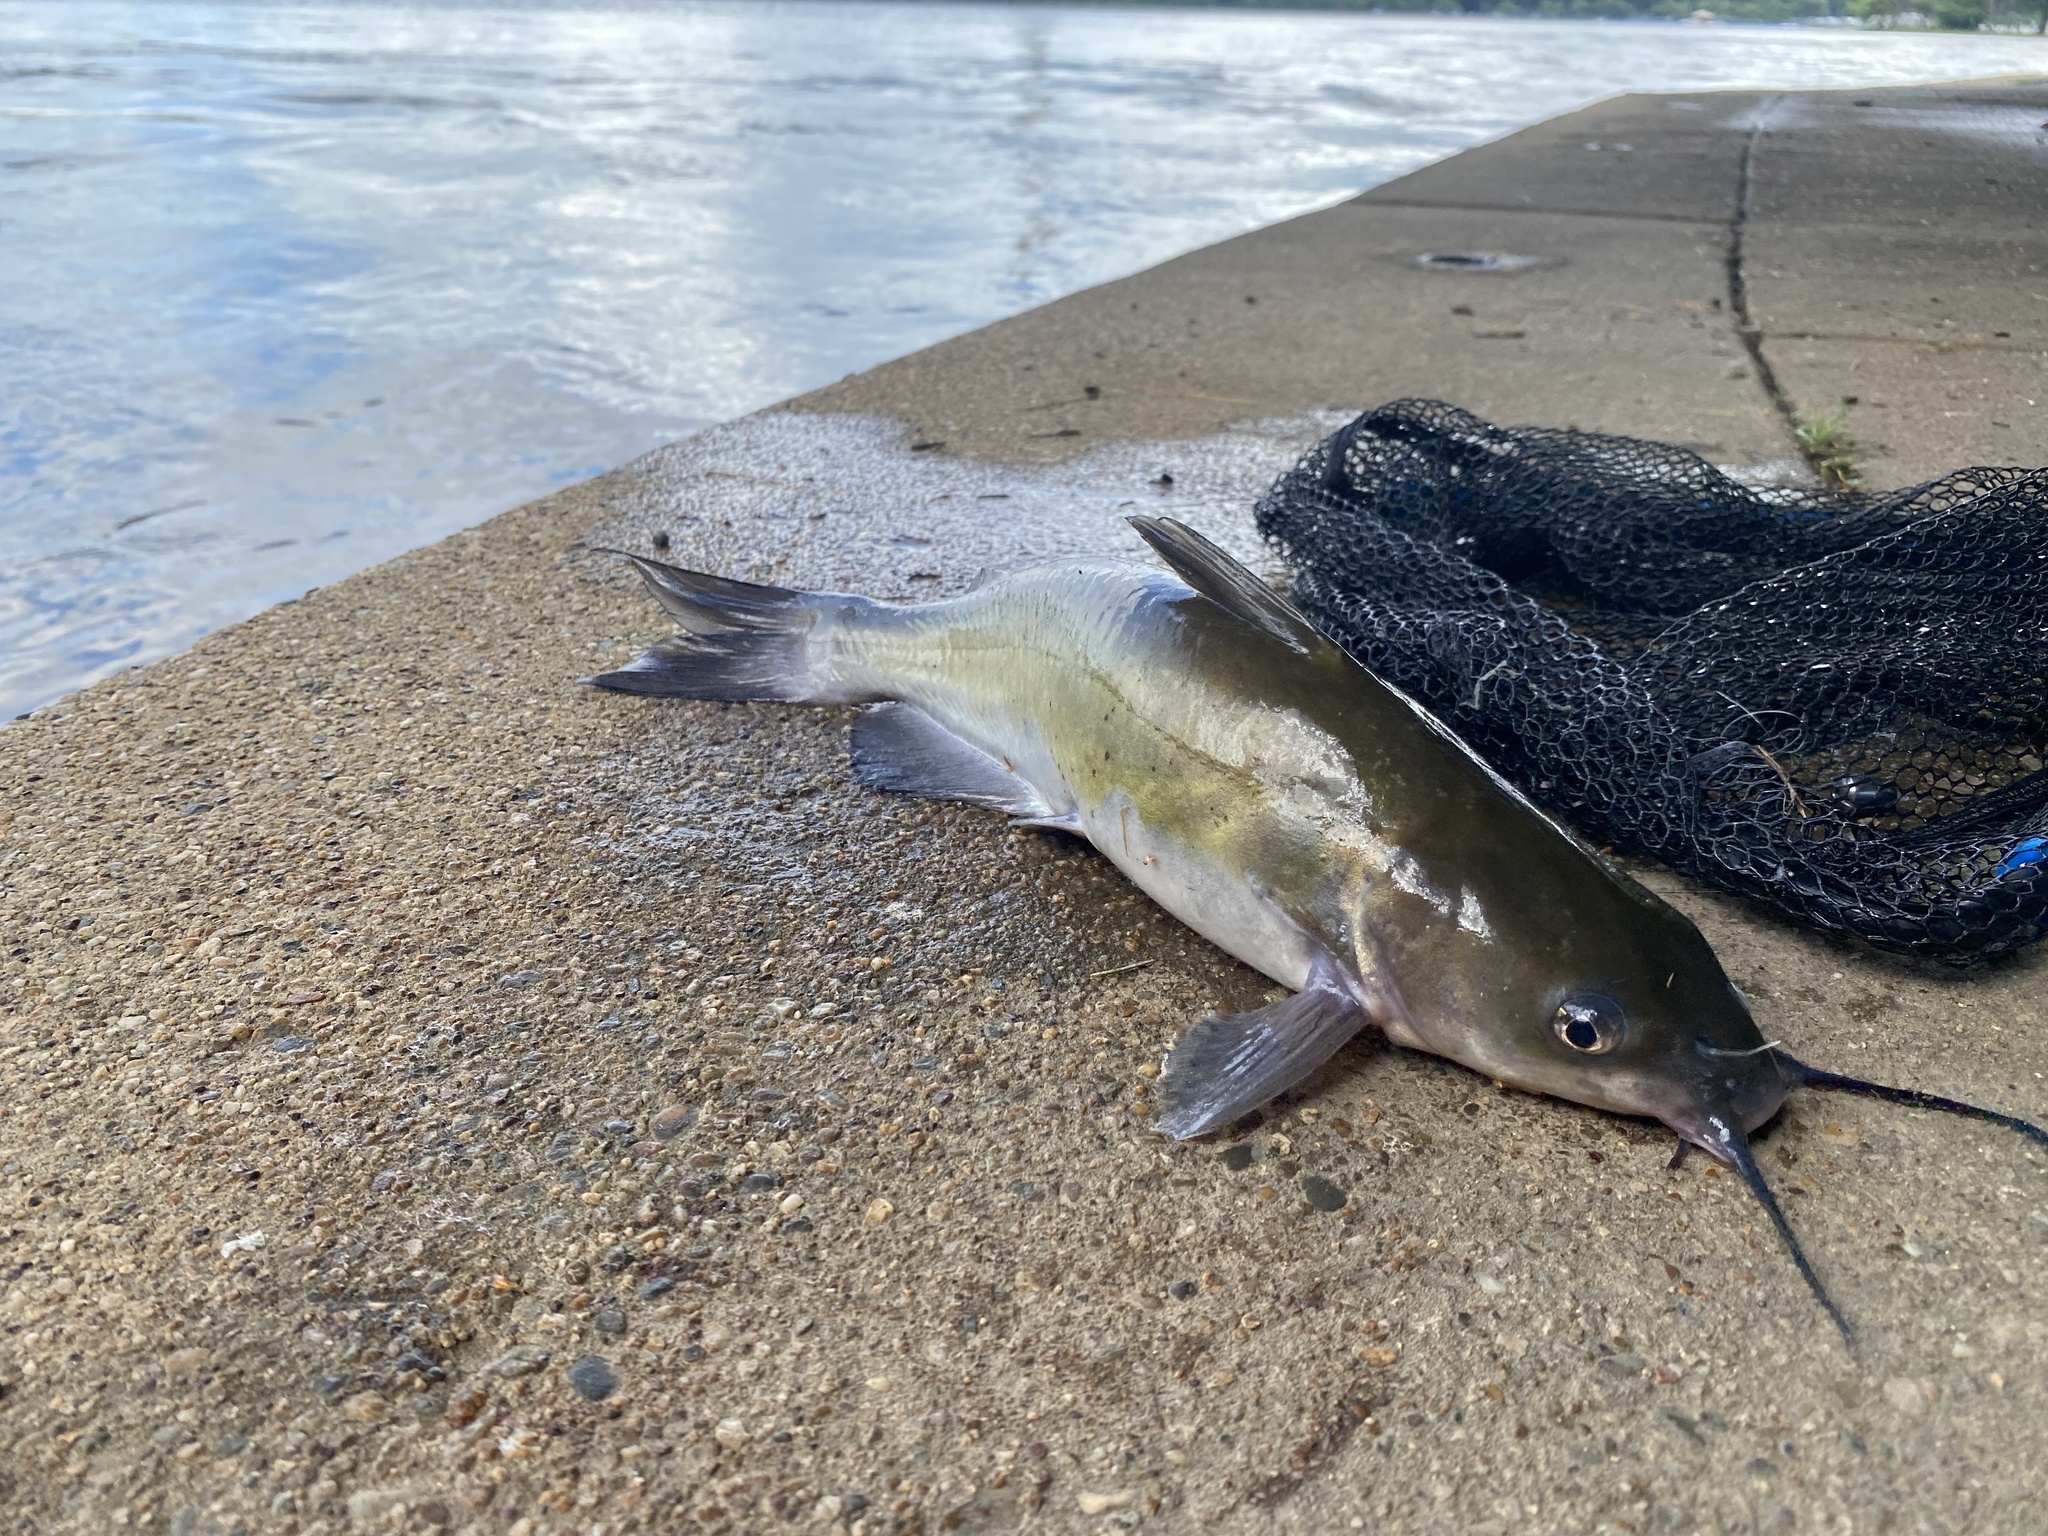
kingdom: Animalia
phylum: Chordata
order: Siluriformes
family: Ictaluridae
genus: Ictalurus
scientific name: Ictalurus punctatus
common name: Channel catfish
